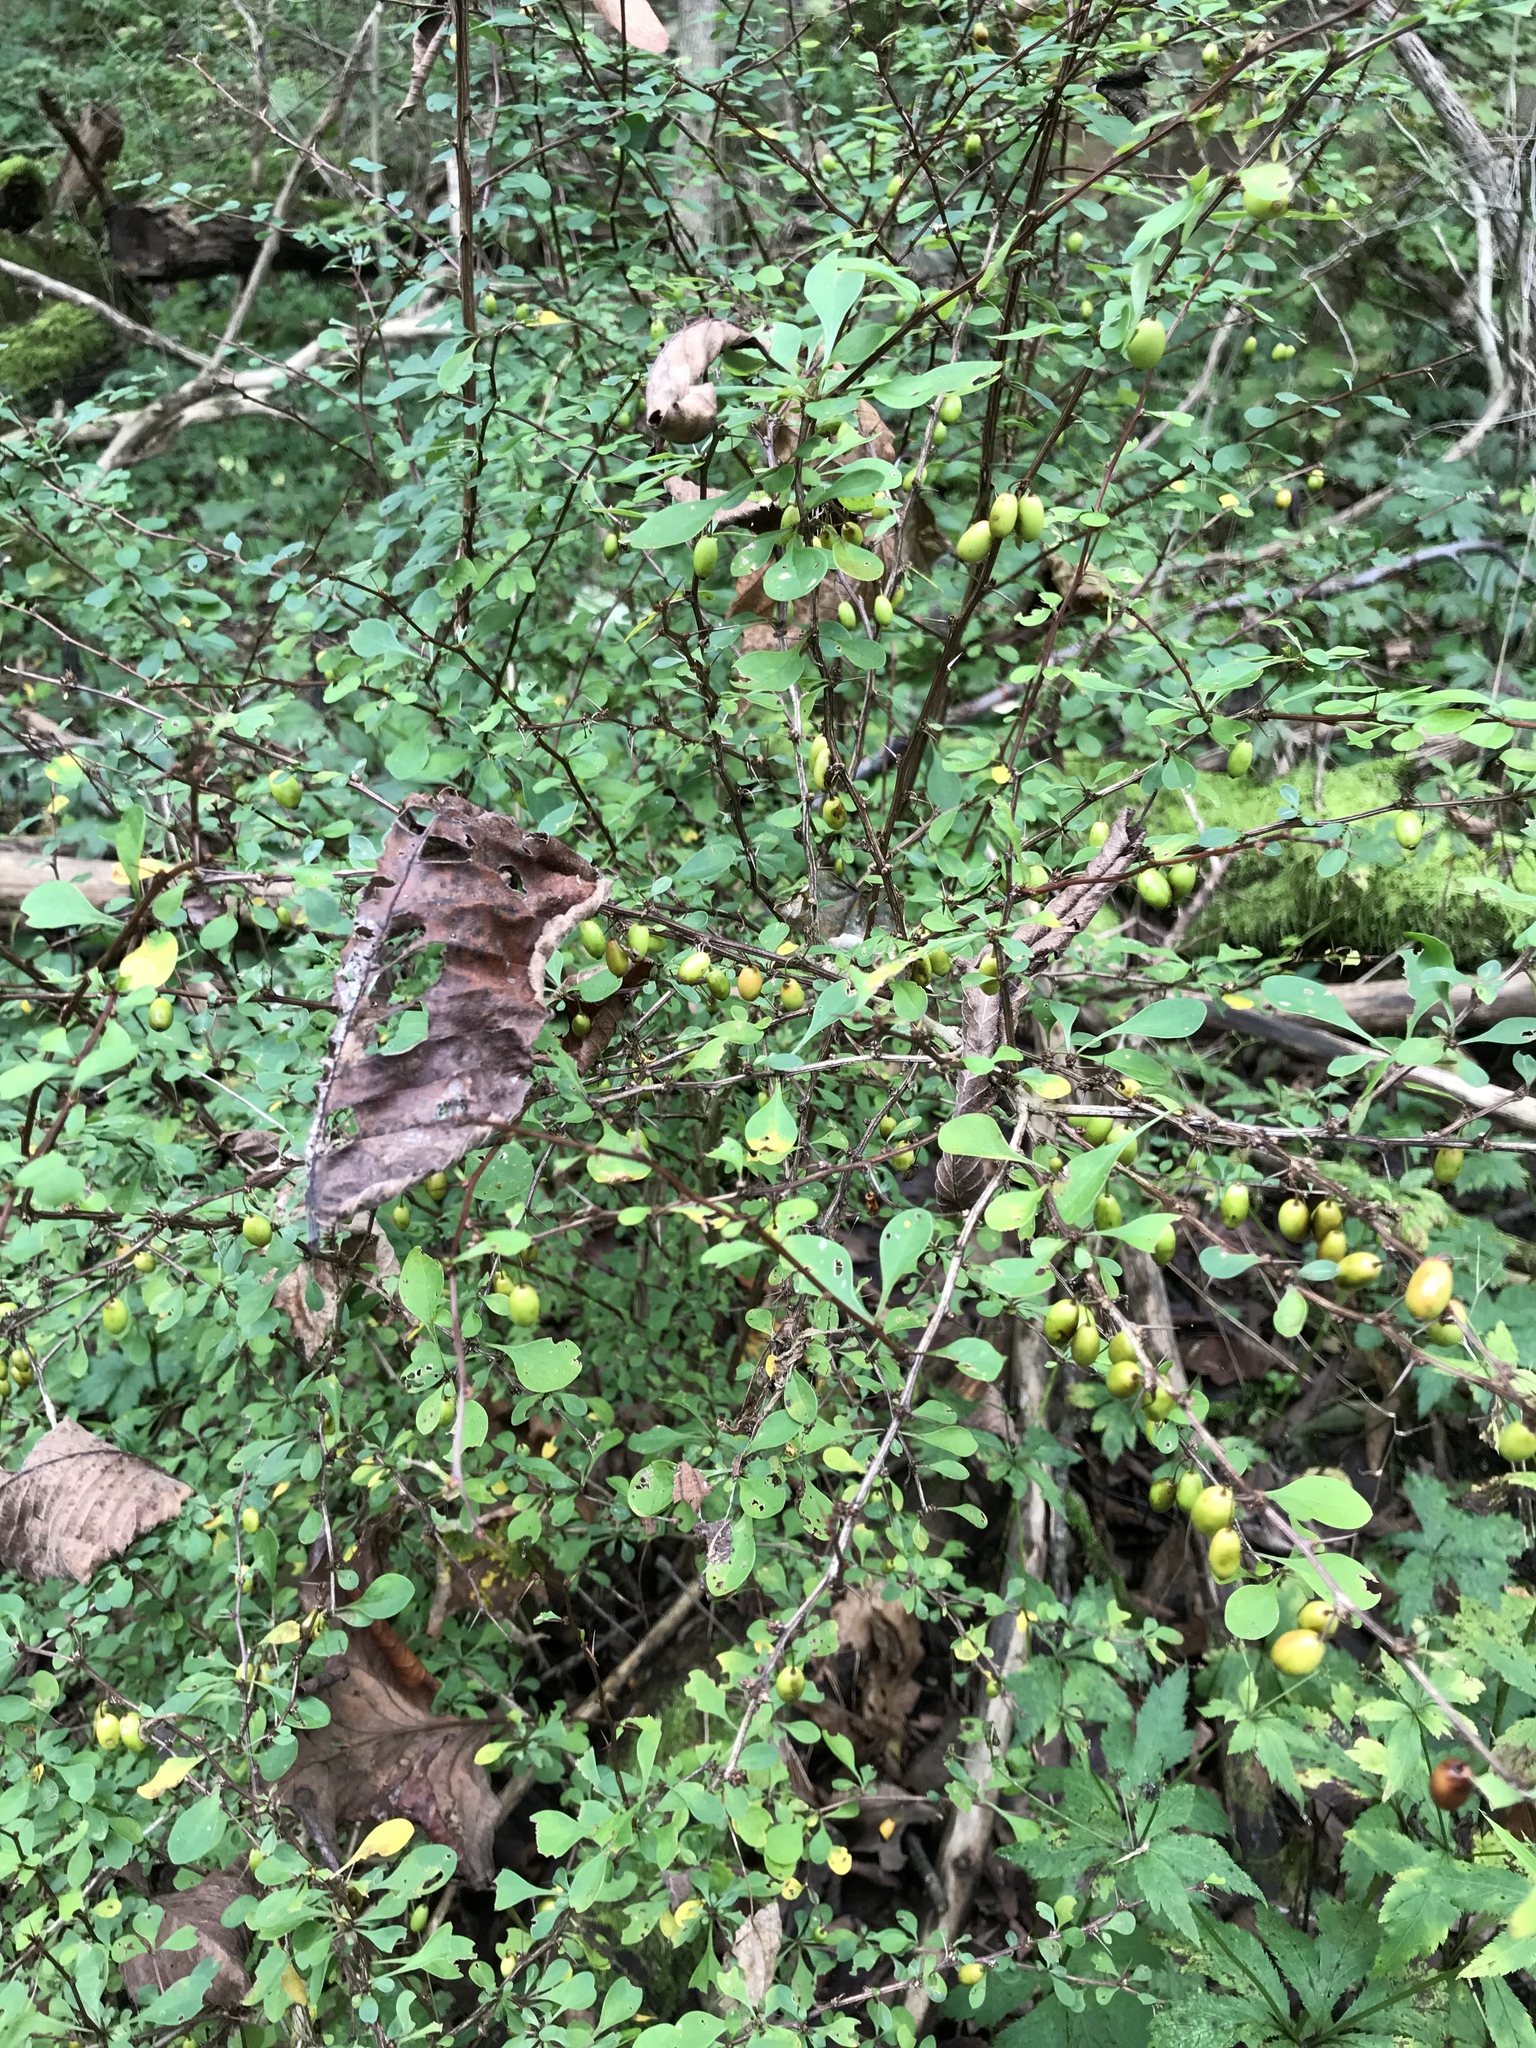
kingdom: Plantae
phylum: Tracheophyta
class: Magnoliopsida
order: Ranunculales
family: Berberidaceae
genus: Berberis
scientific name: Berberis thunbergii
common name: Japanese barberry
